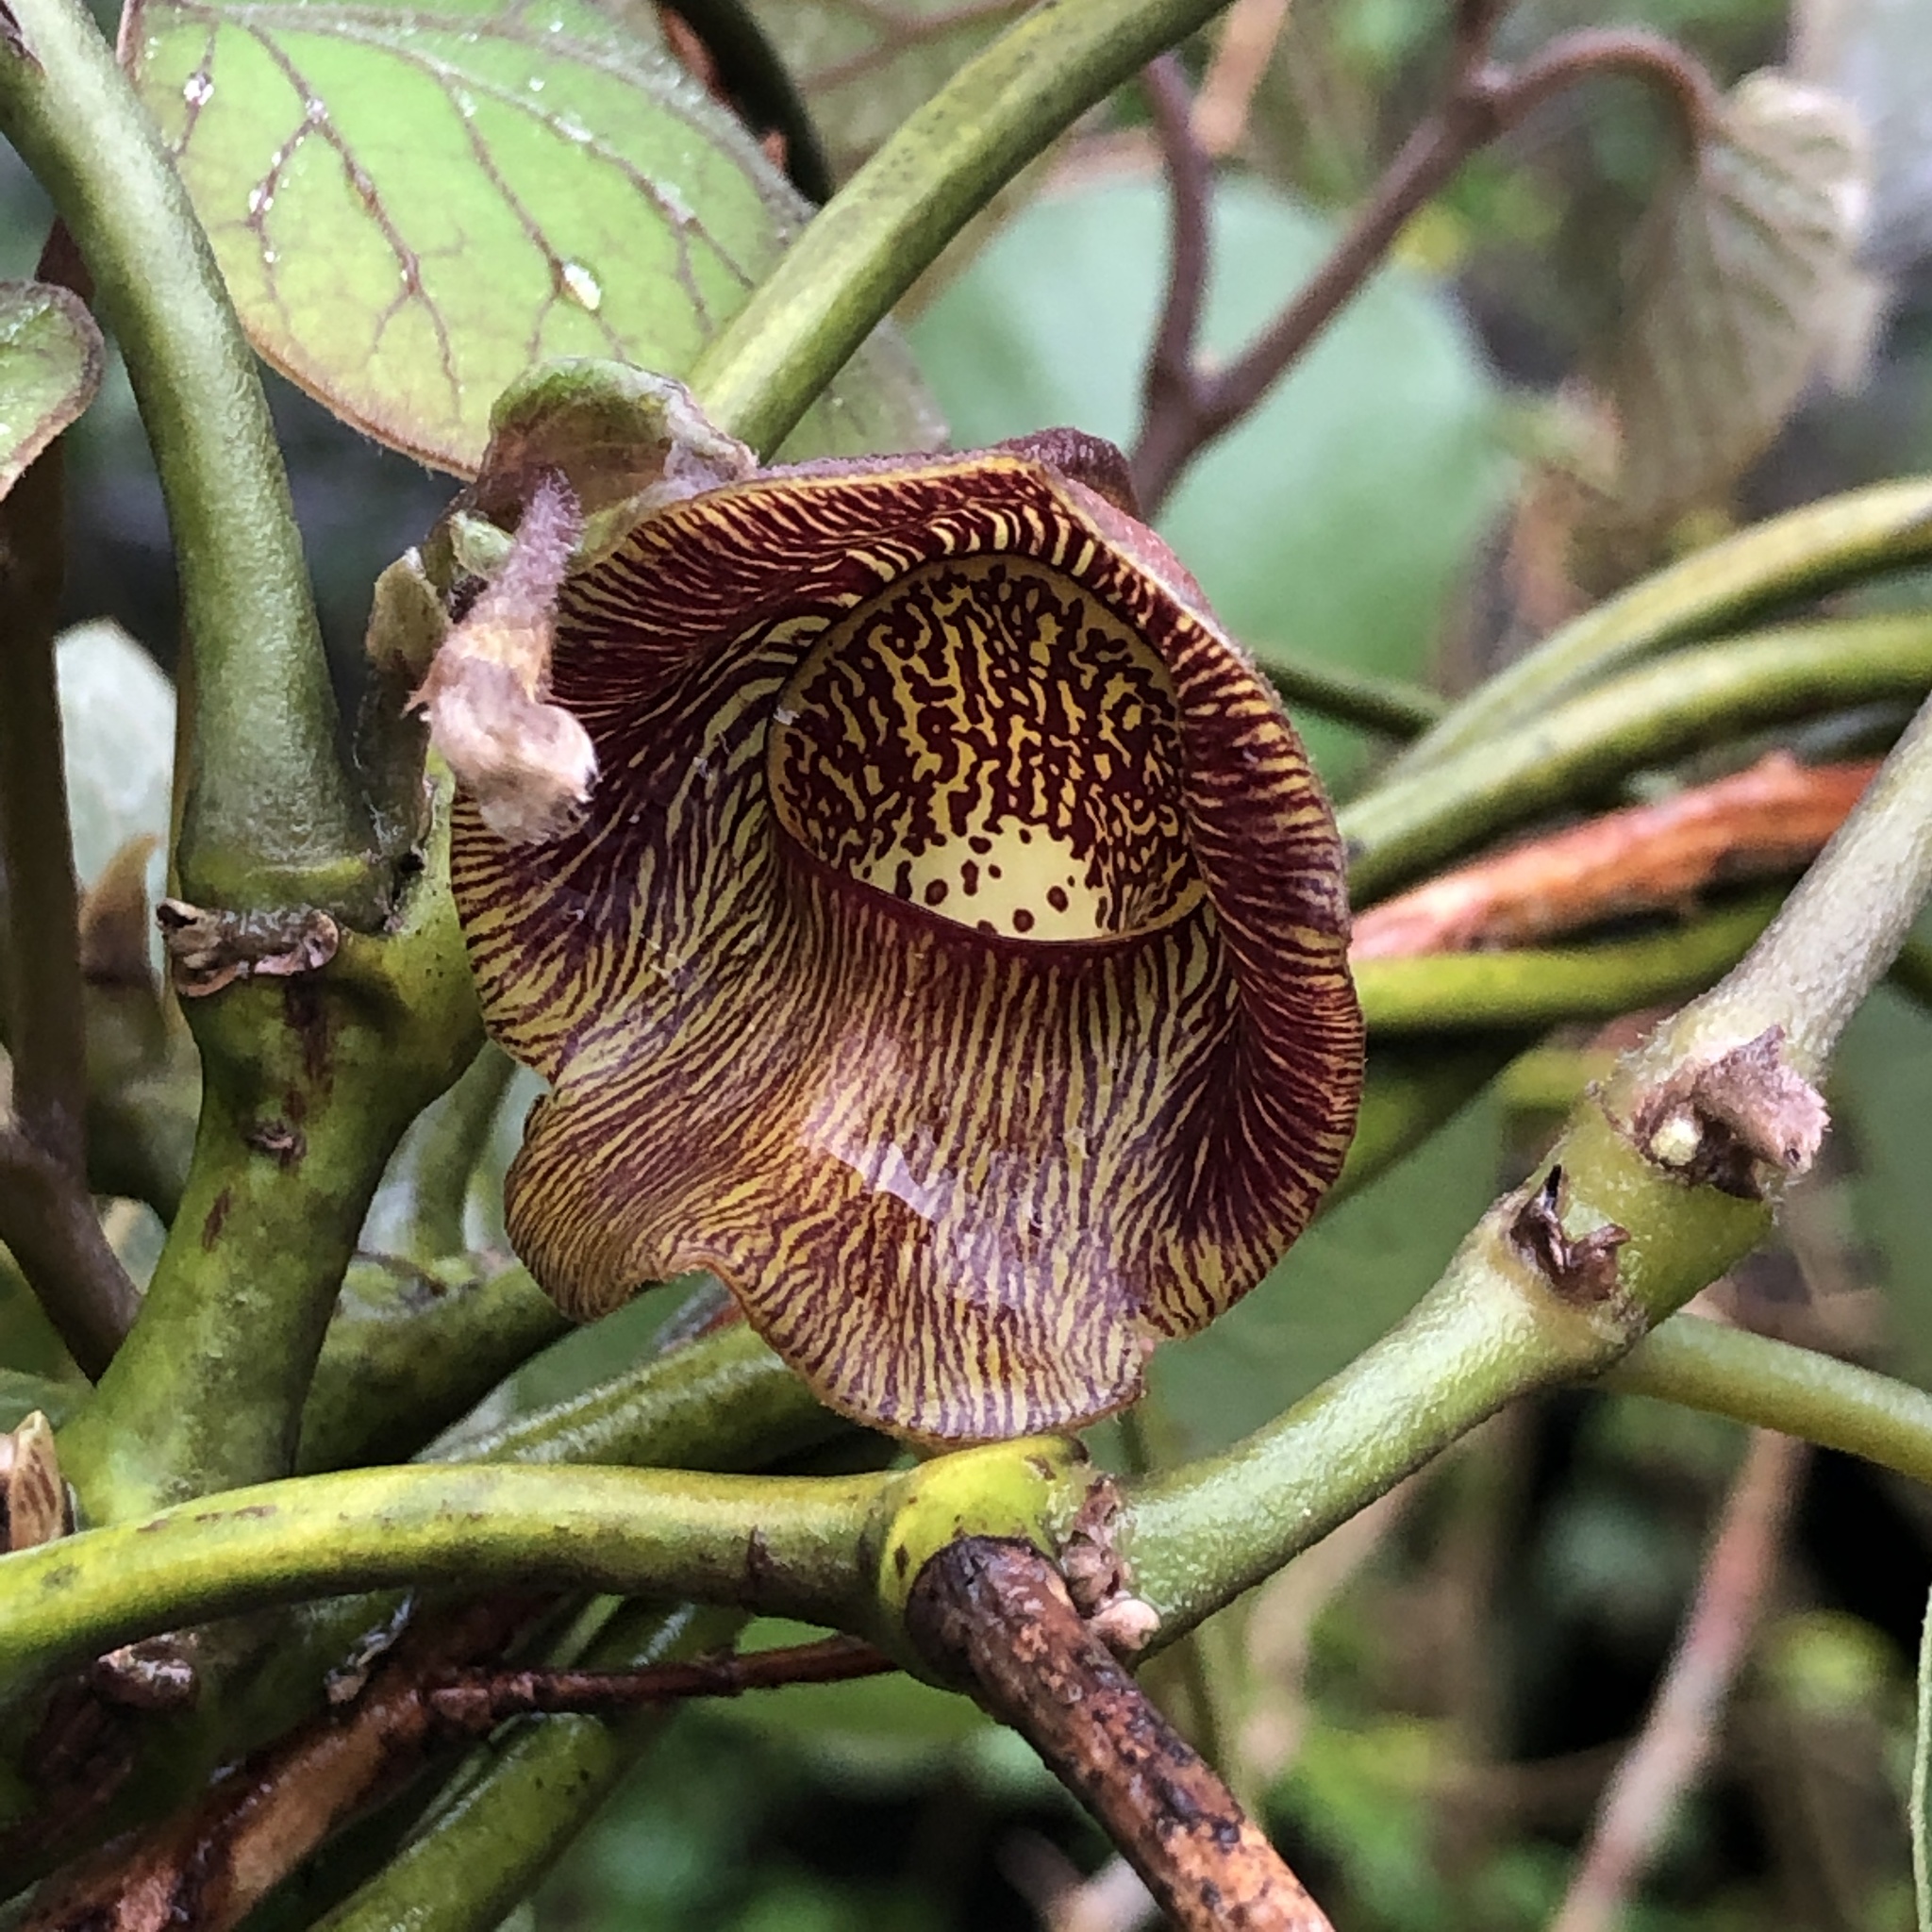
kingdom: Plantae
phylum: Tracheophyta
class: Magnoliopsida
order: Piperales
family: Aristolochiaceae
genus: Isotrema
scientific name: Isotrema liukiuense
